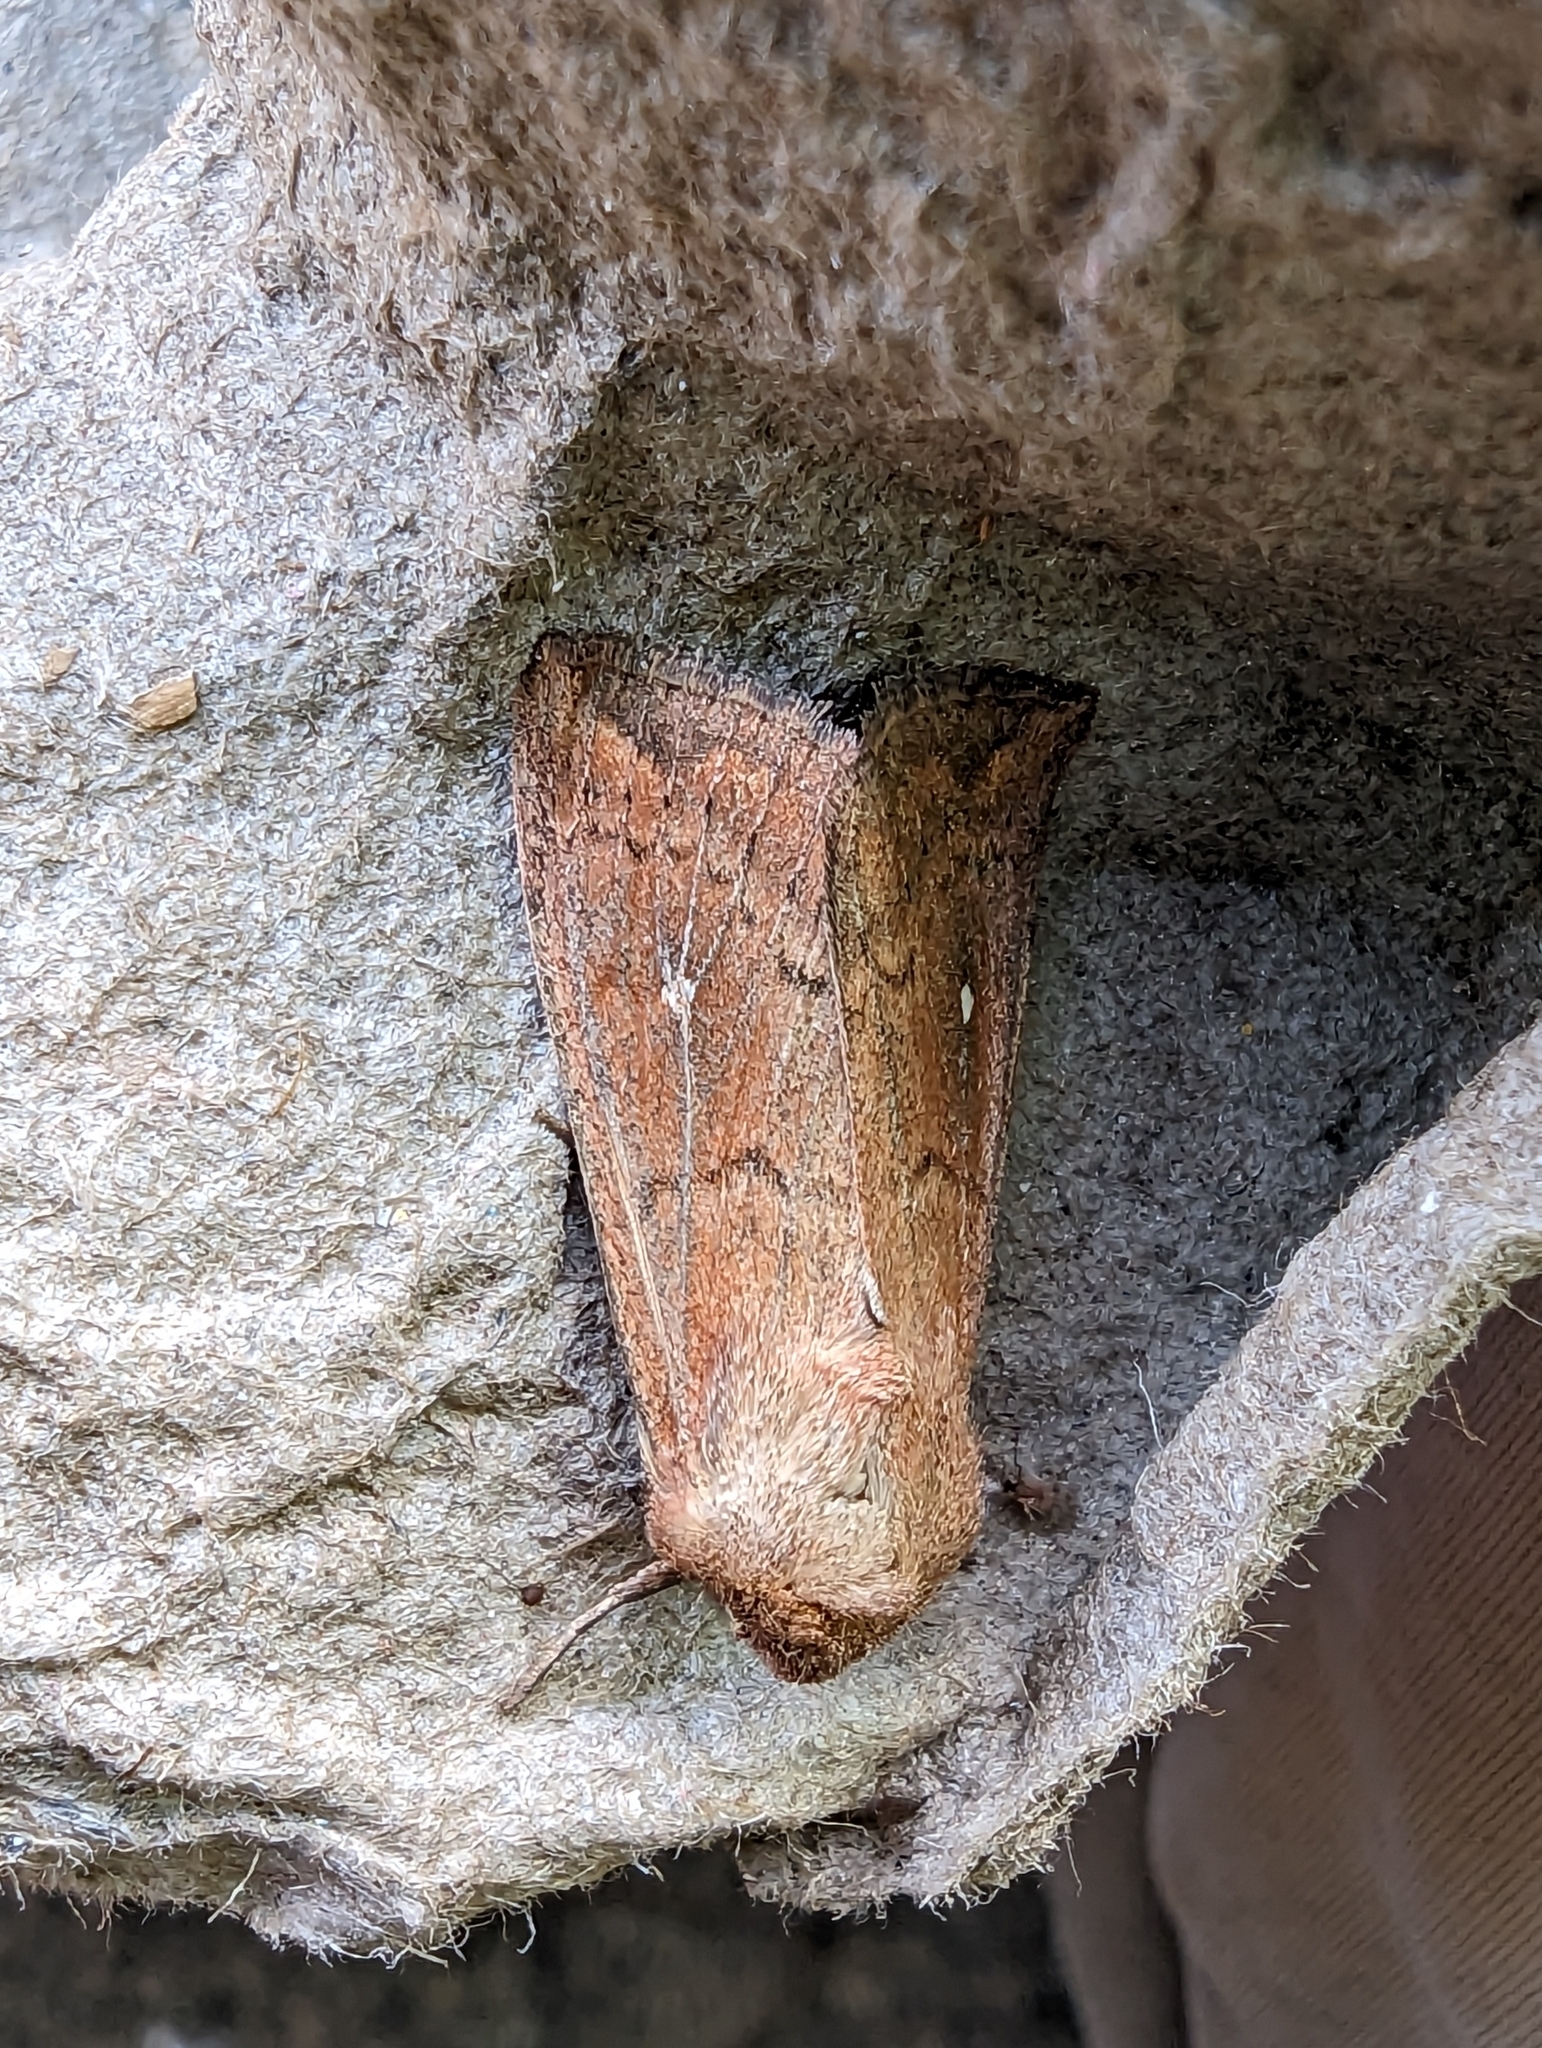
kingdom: Animalia
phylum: Arthropoda
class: Insecta
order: Lepidoptera
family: Noctuidae
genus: Mythimna
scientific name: Mythimna albipuncta
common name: White-point
